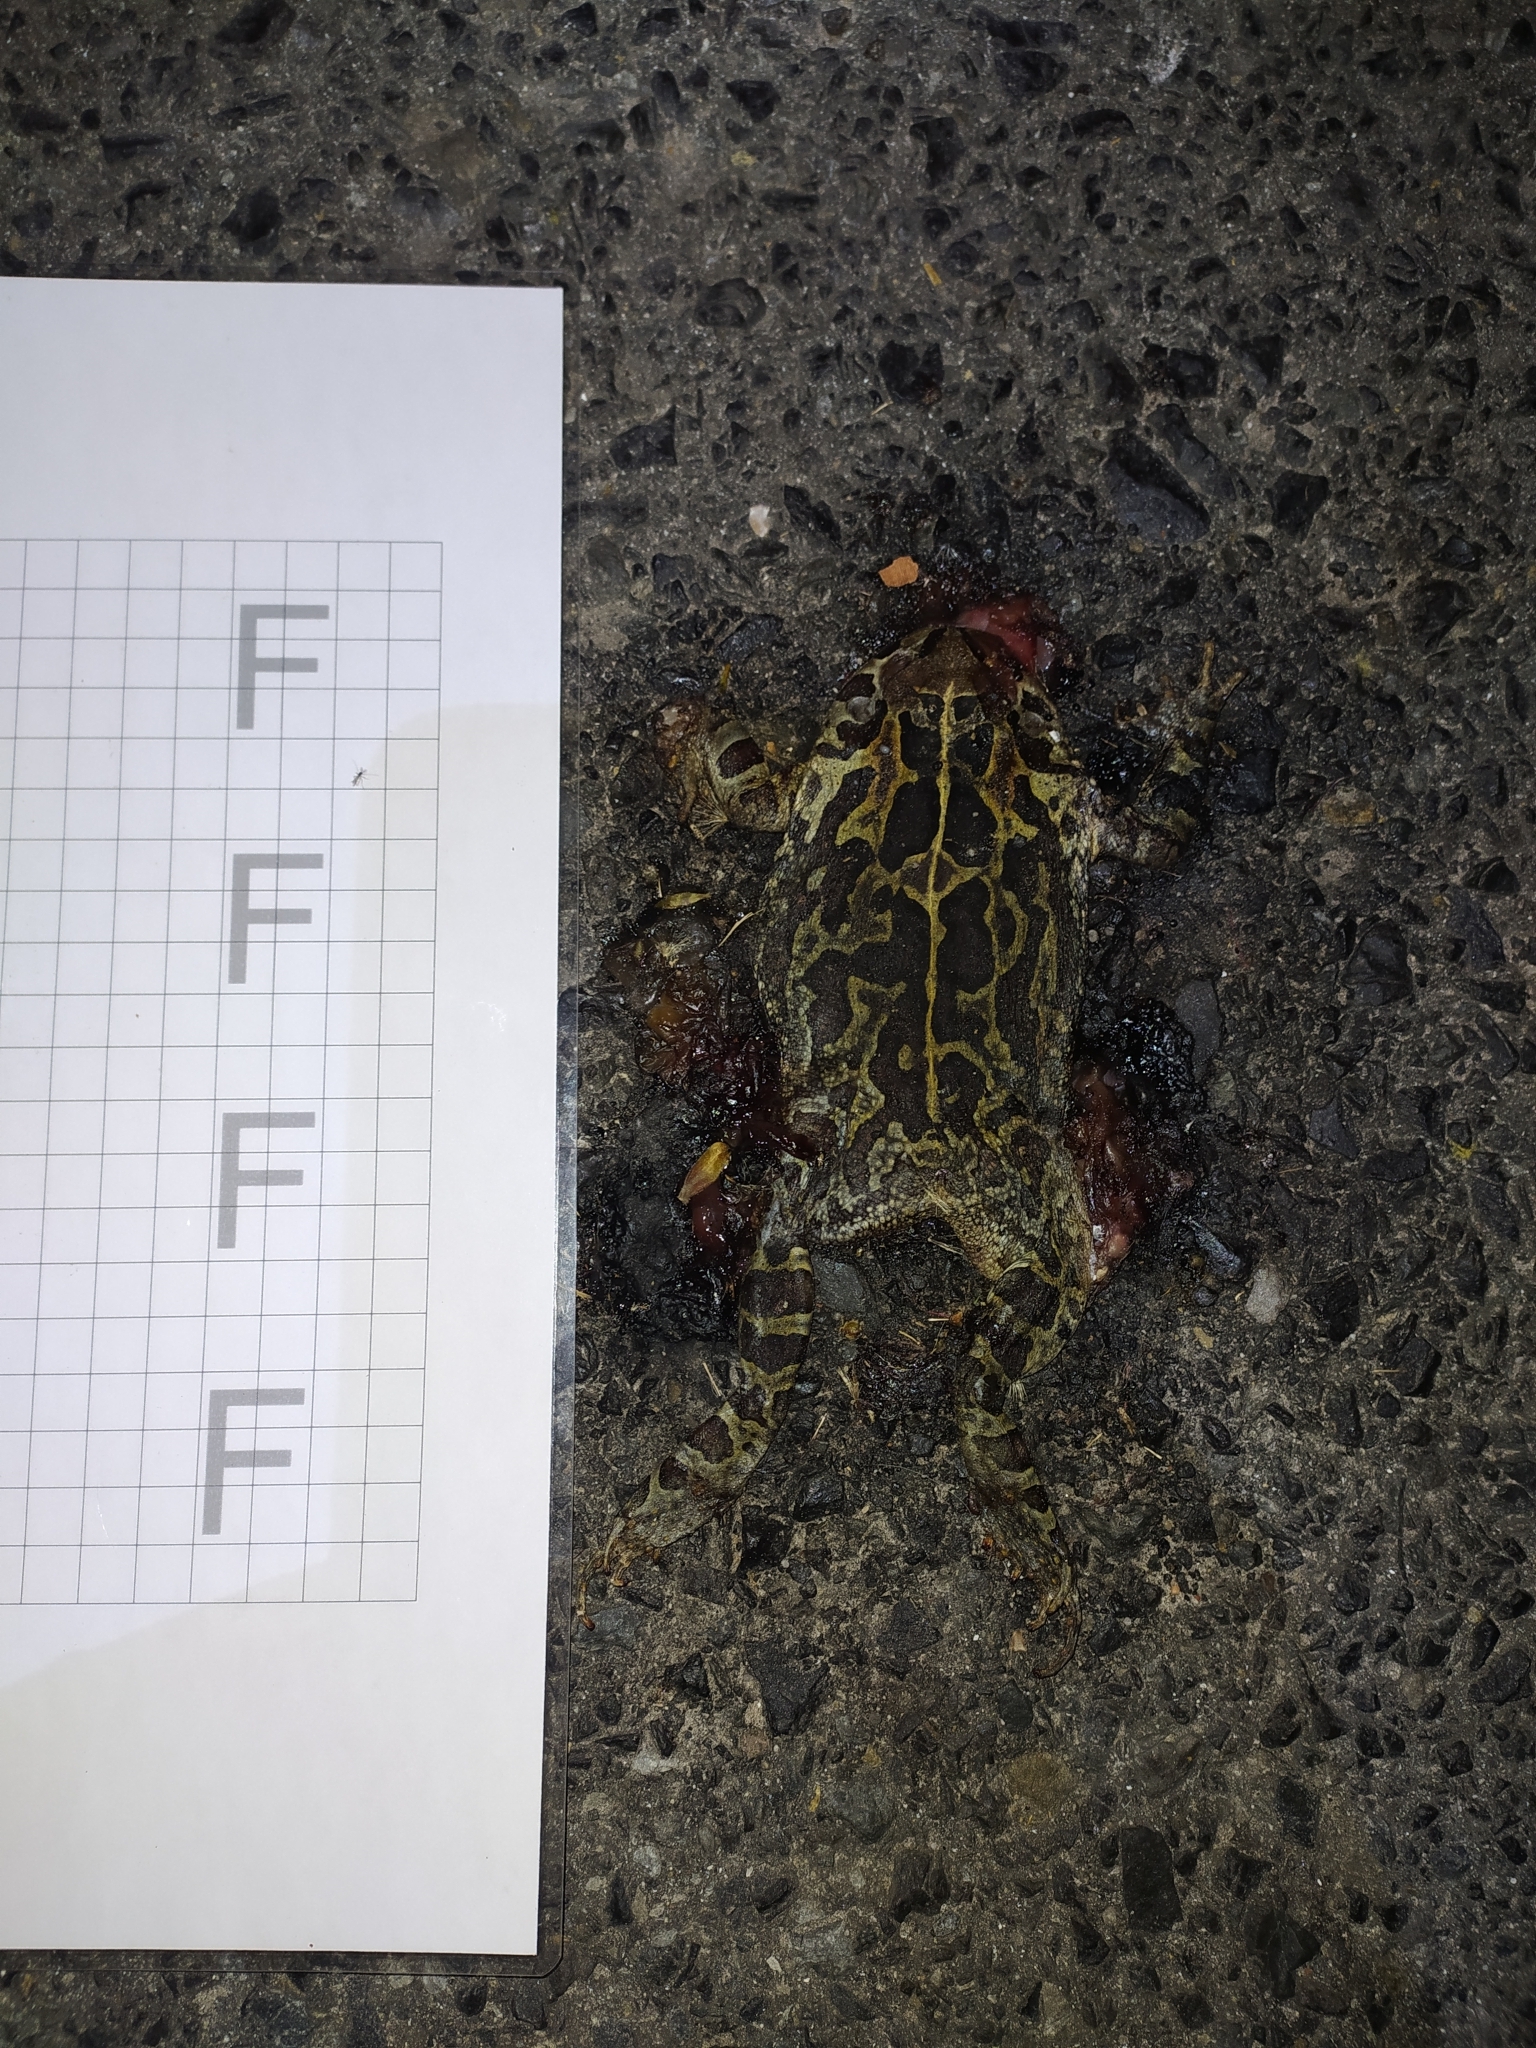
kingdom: Animalia
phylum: Chordata
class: Amphibia
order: Anura
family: Bufonidae
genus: Sclerophrys
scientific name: Sclerophrys pantherina
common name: Panther toad
